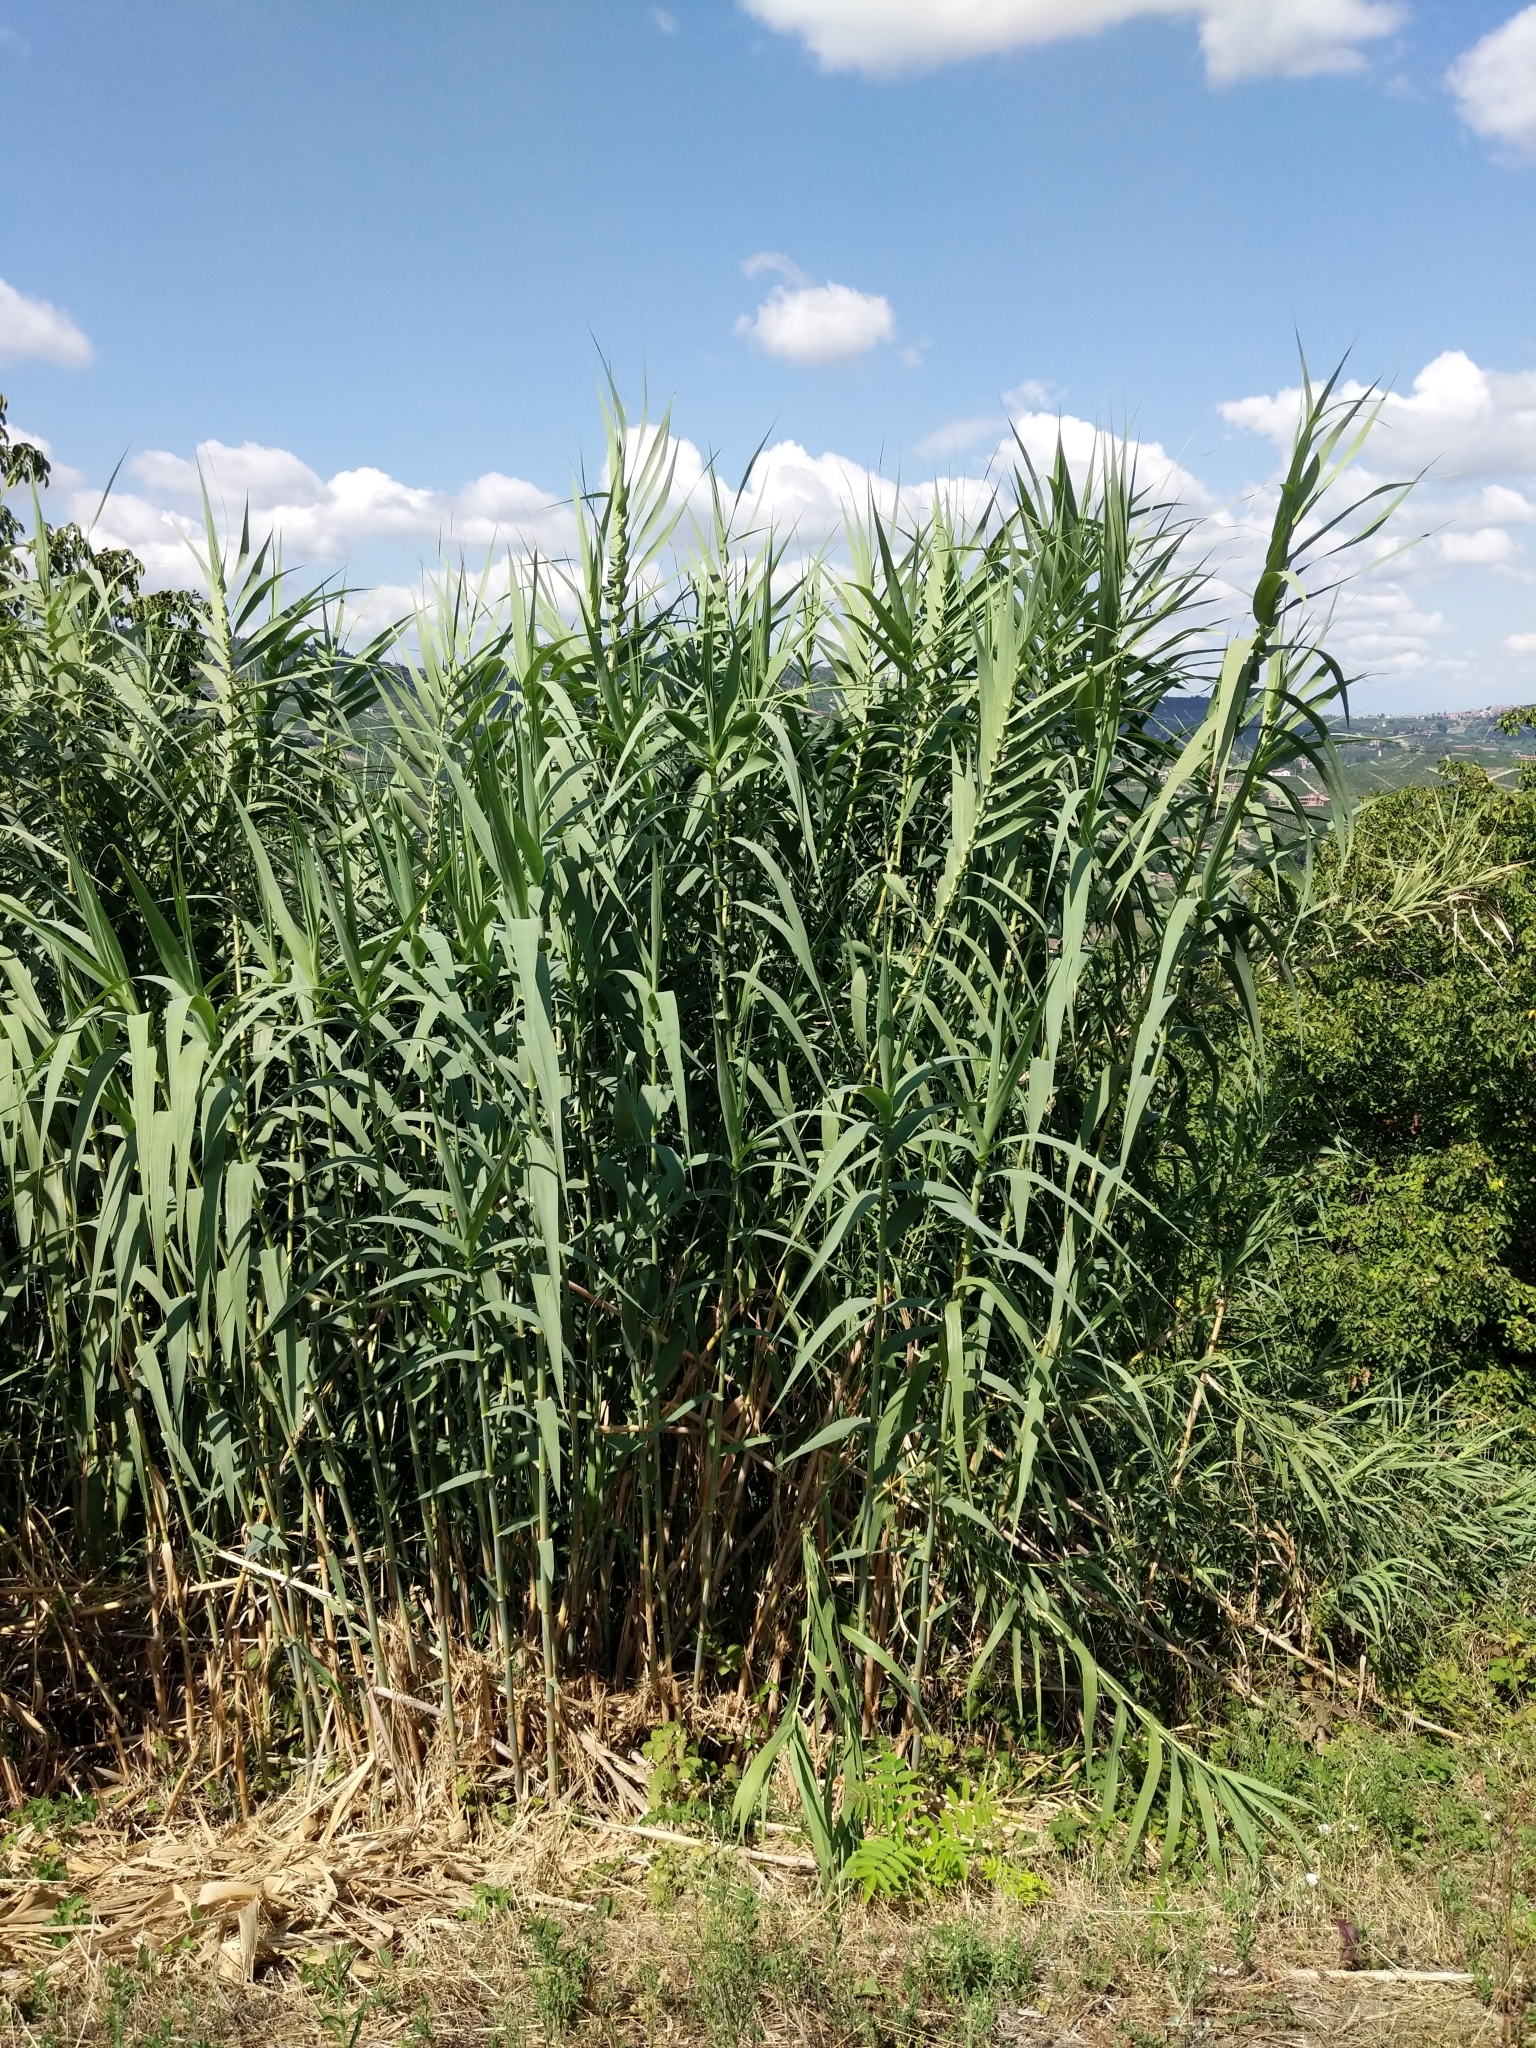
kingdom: Plantae
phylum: Tracheophyta
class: Liliopsida
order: Poales
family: Poaceae
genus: Arundo
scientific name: Arundo donax
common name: Giant reed
